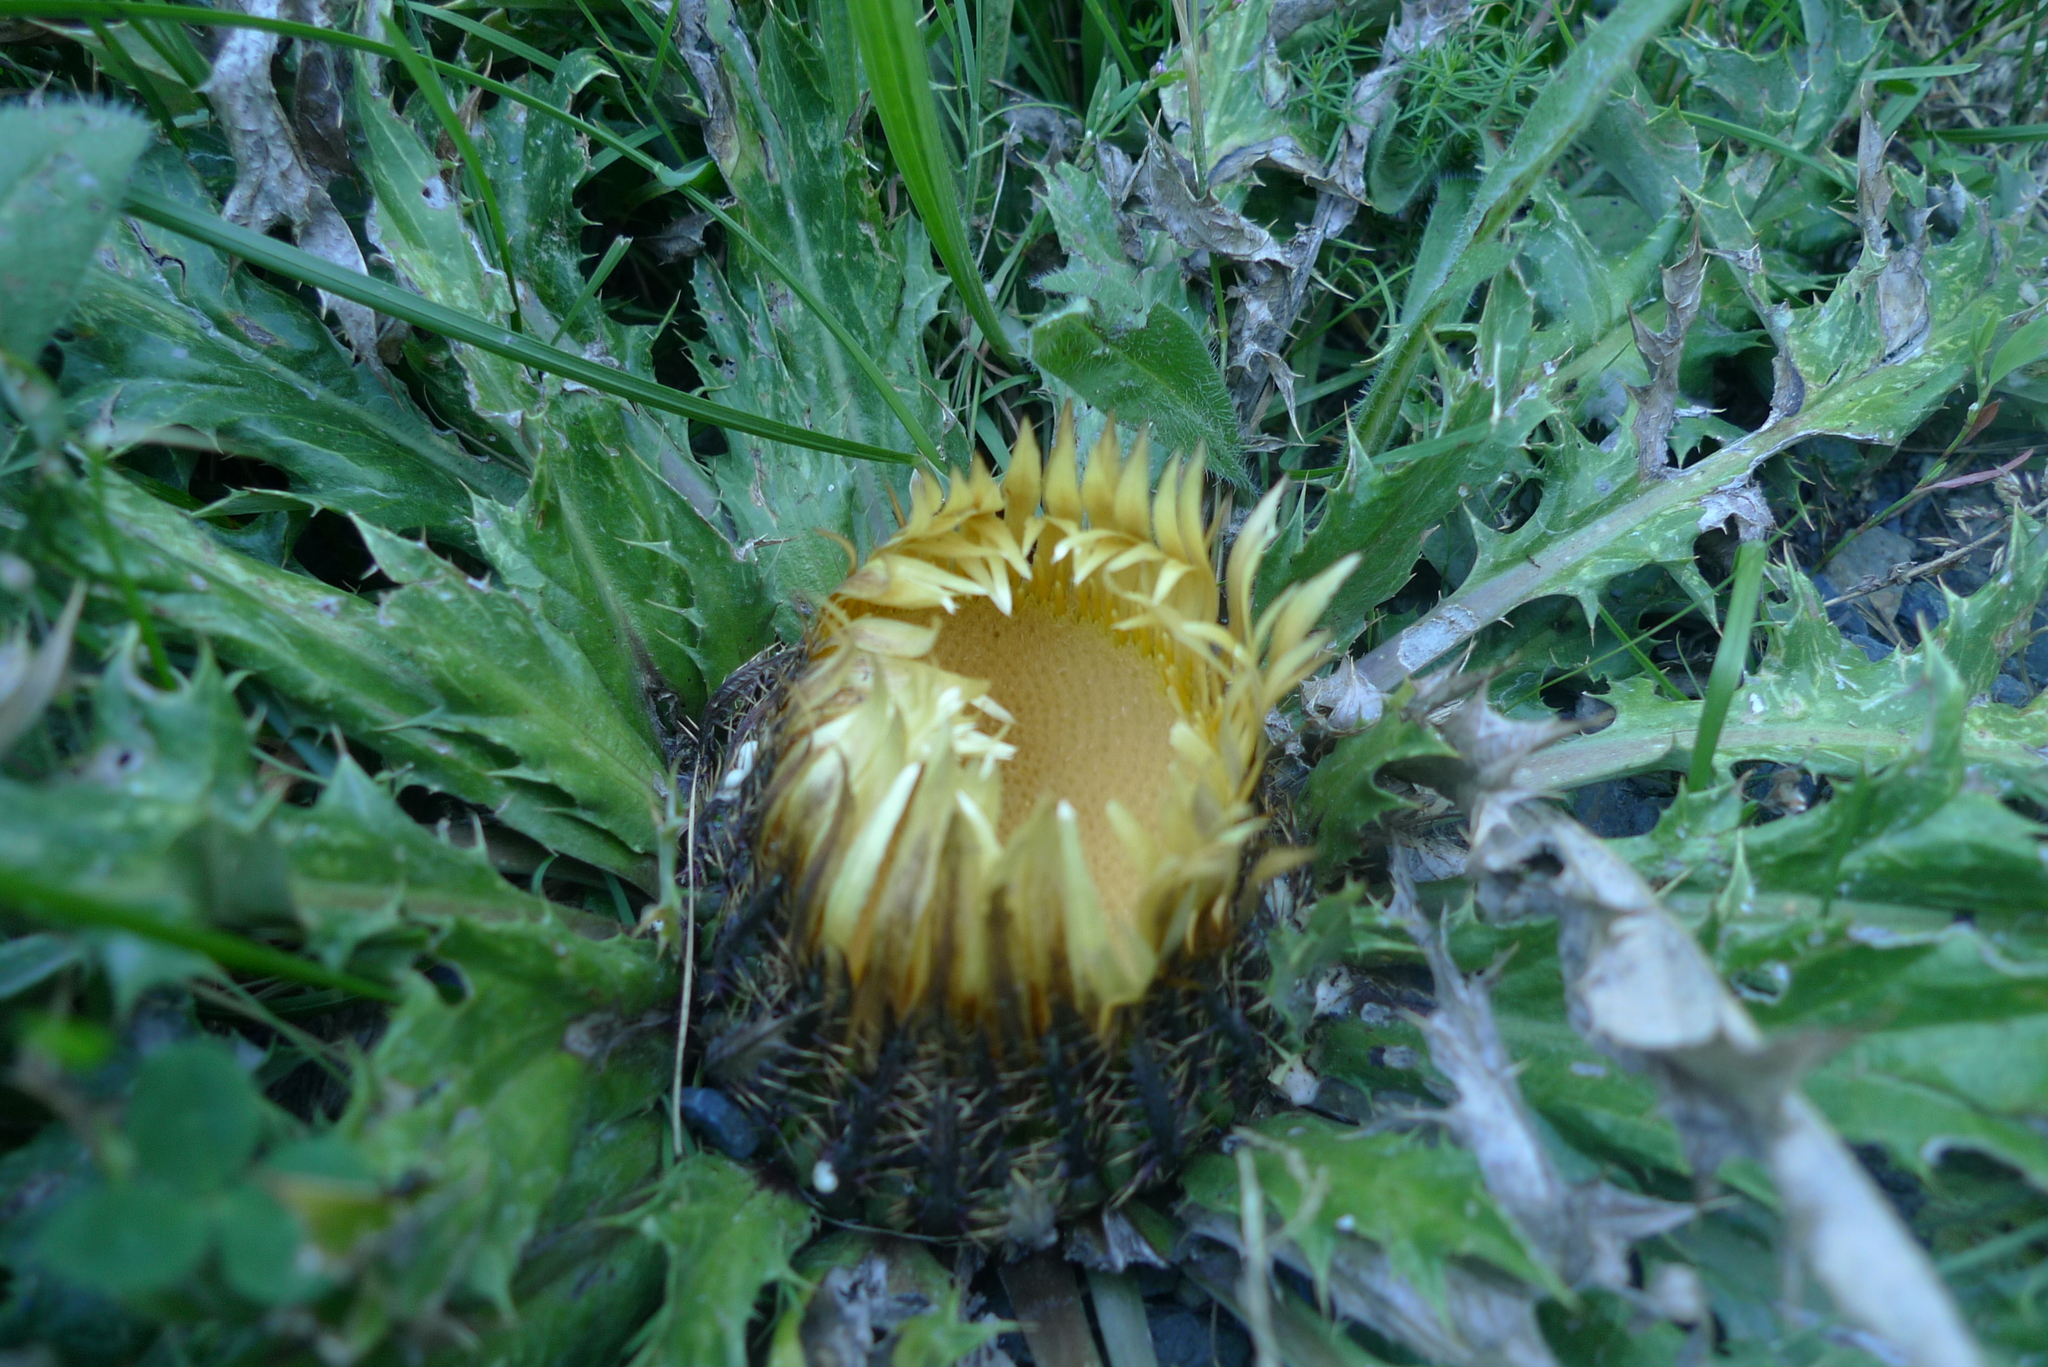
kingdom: Plantae
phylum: Tracheophyta
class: Magnoliopsida
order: Asterales
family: Asteraceae
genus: Carlina
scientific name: Carlina acanthifolia
